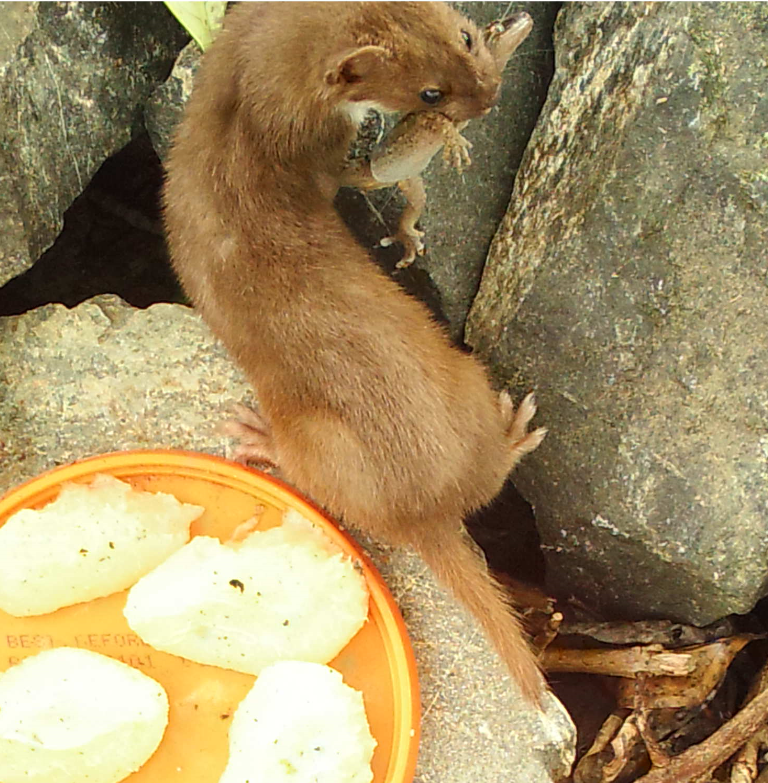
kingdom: Animalia
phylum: Chordata
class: Squamata
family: Diplodactylidae
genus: Woodworthia
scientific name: Woodworthia maculata
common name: Raukawa gecko
